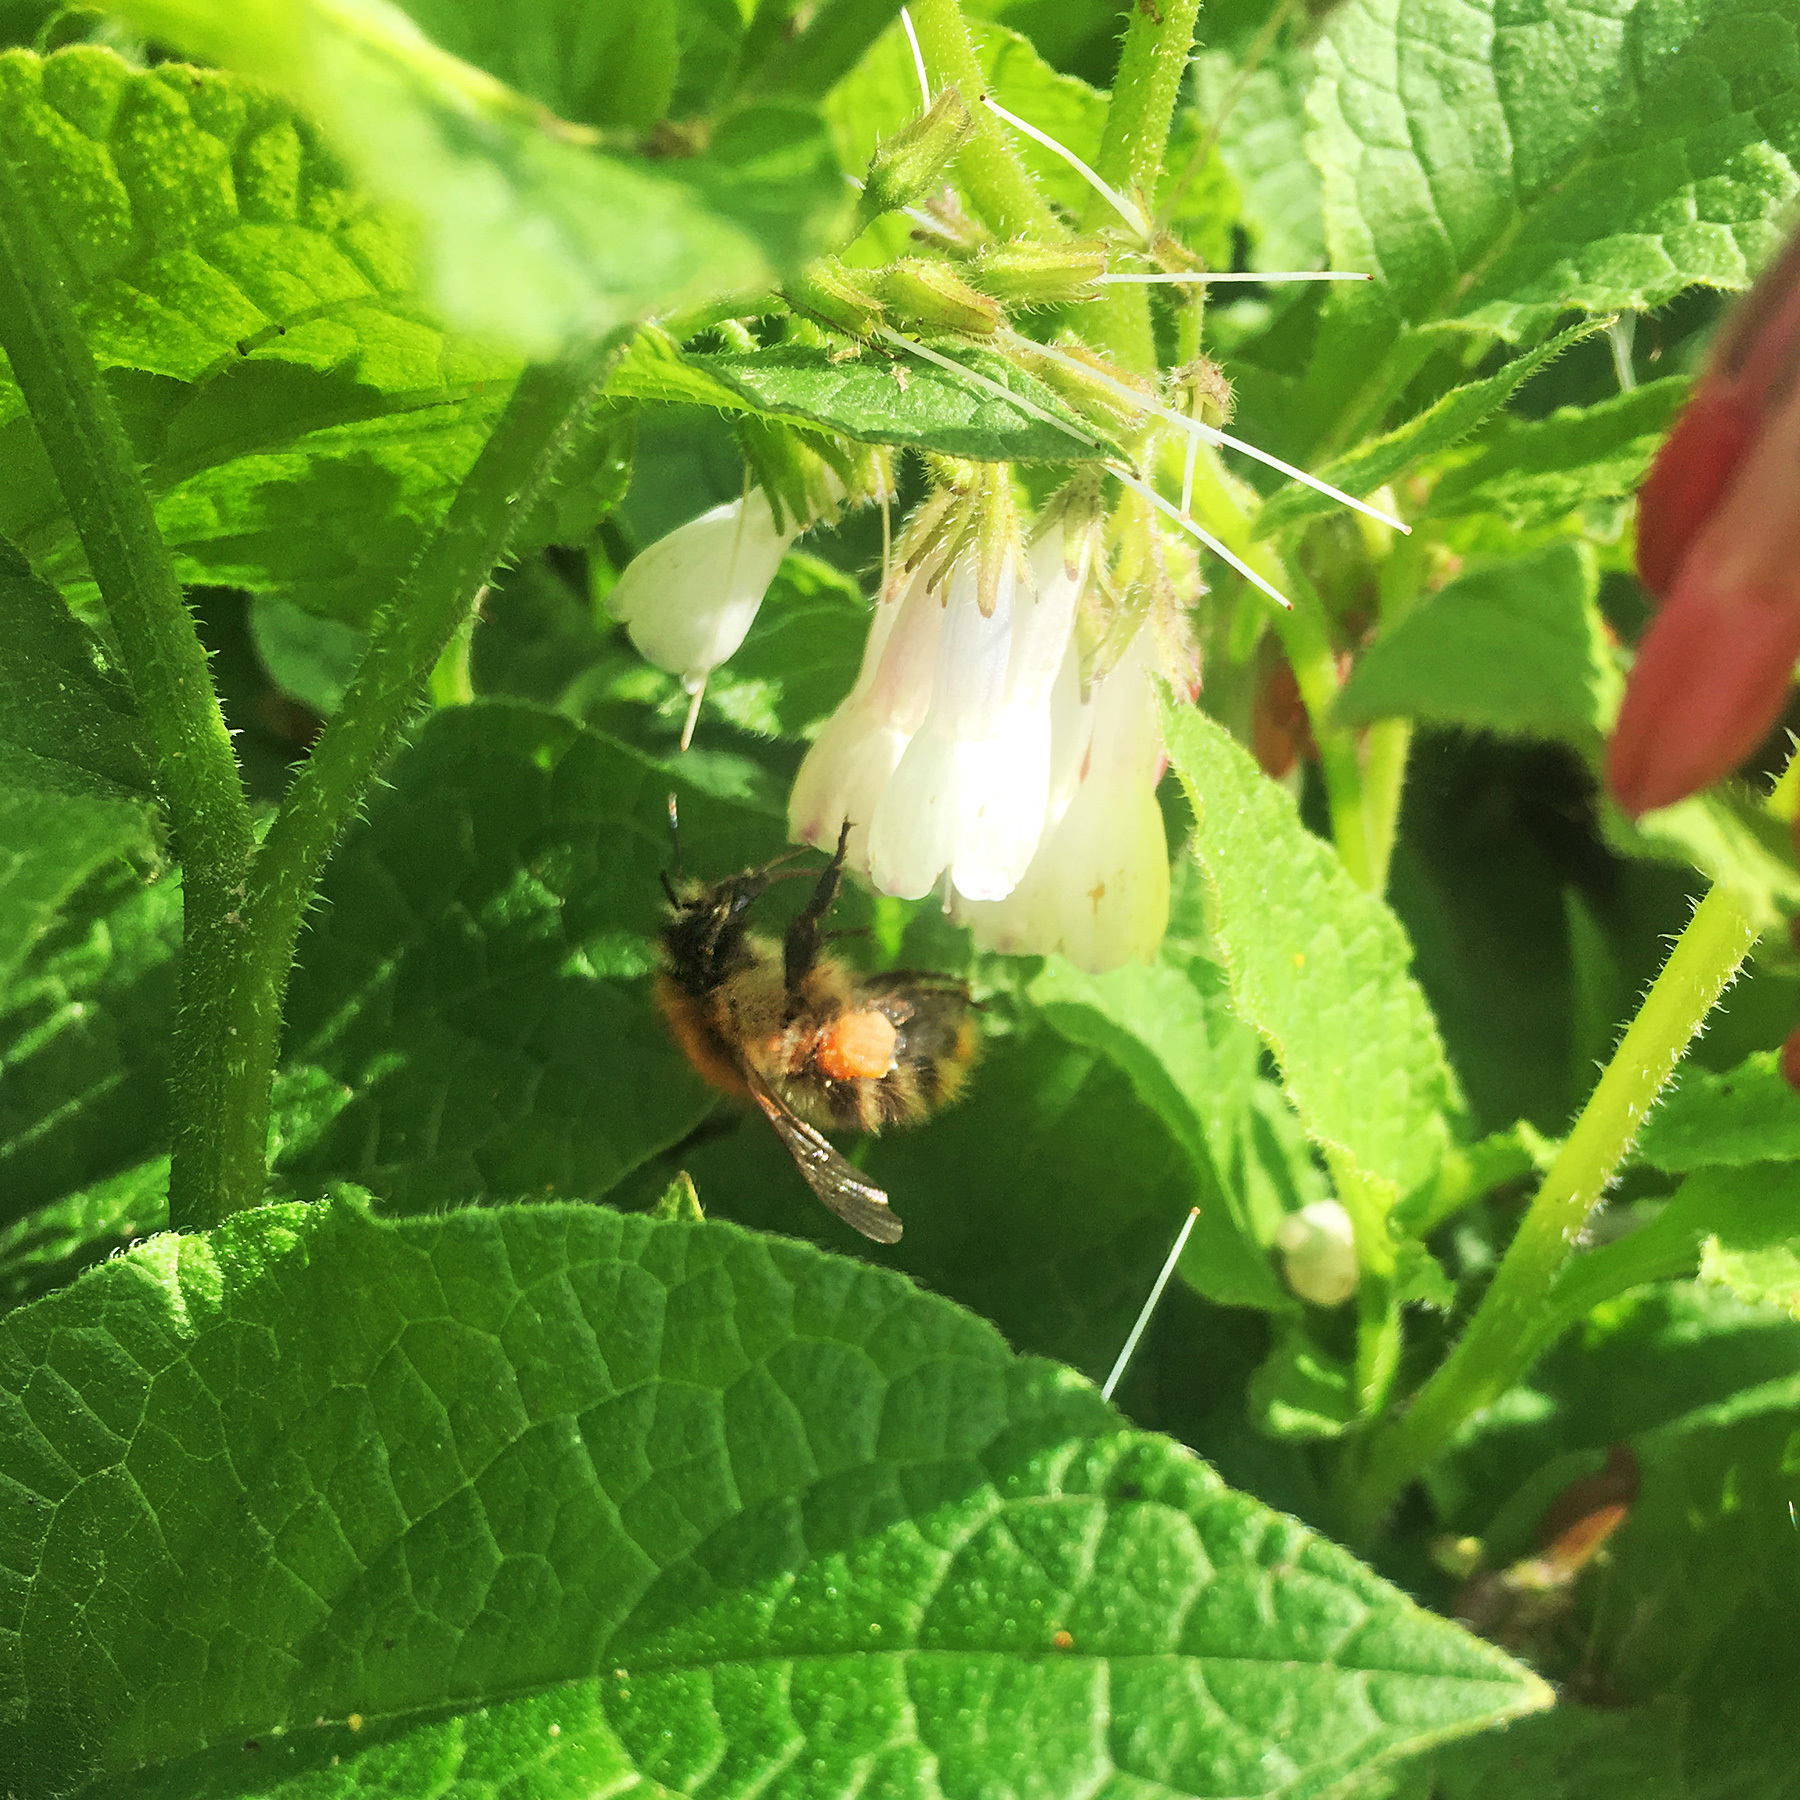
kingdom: Animalia
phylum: Arthropoda
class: Insecta
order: Hymenoptera
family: Apidae
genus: Bombus
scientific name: Bombus pascuorum
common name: Common carder bee
